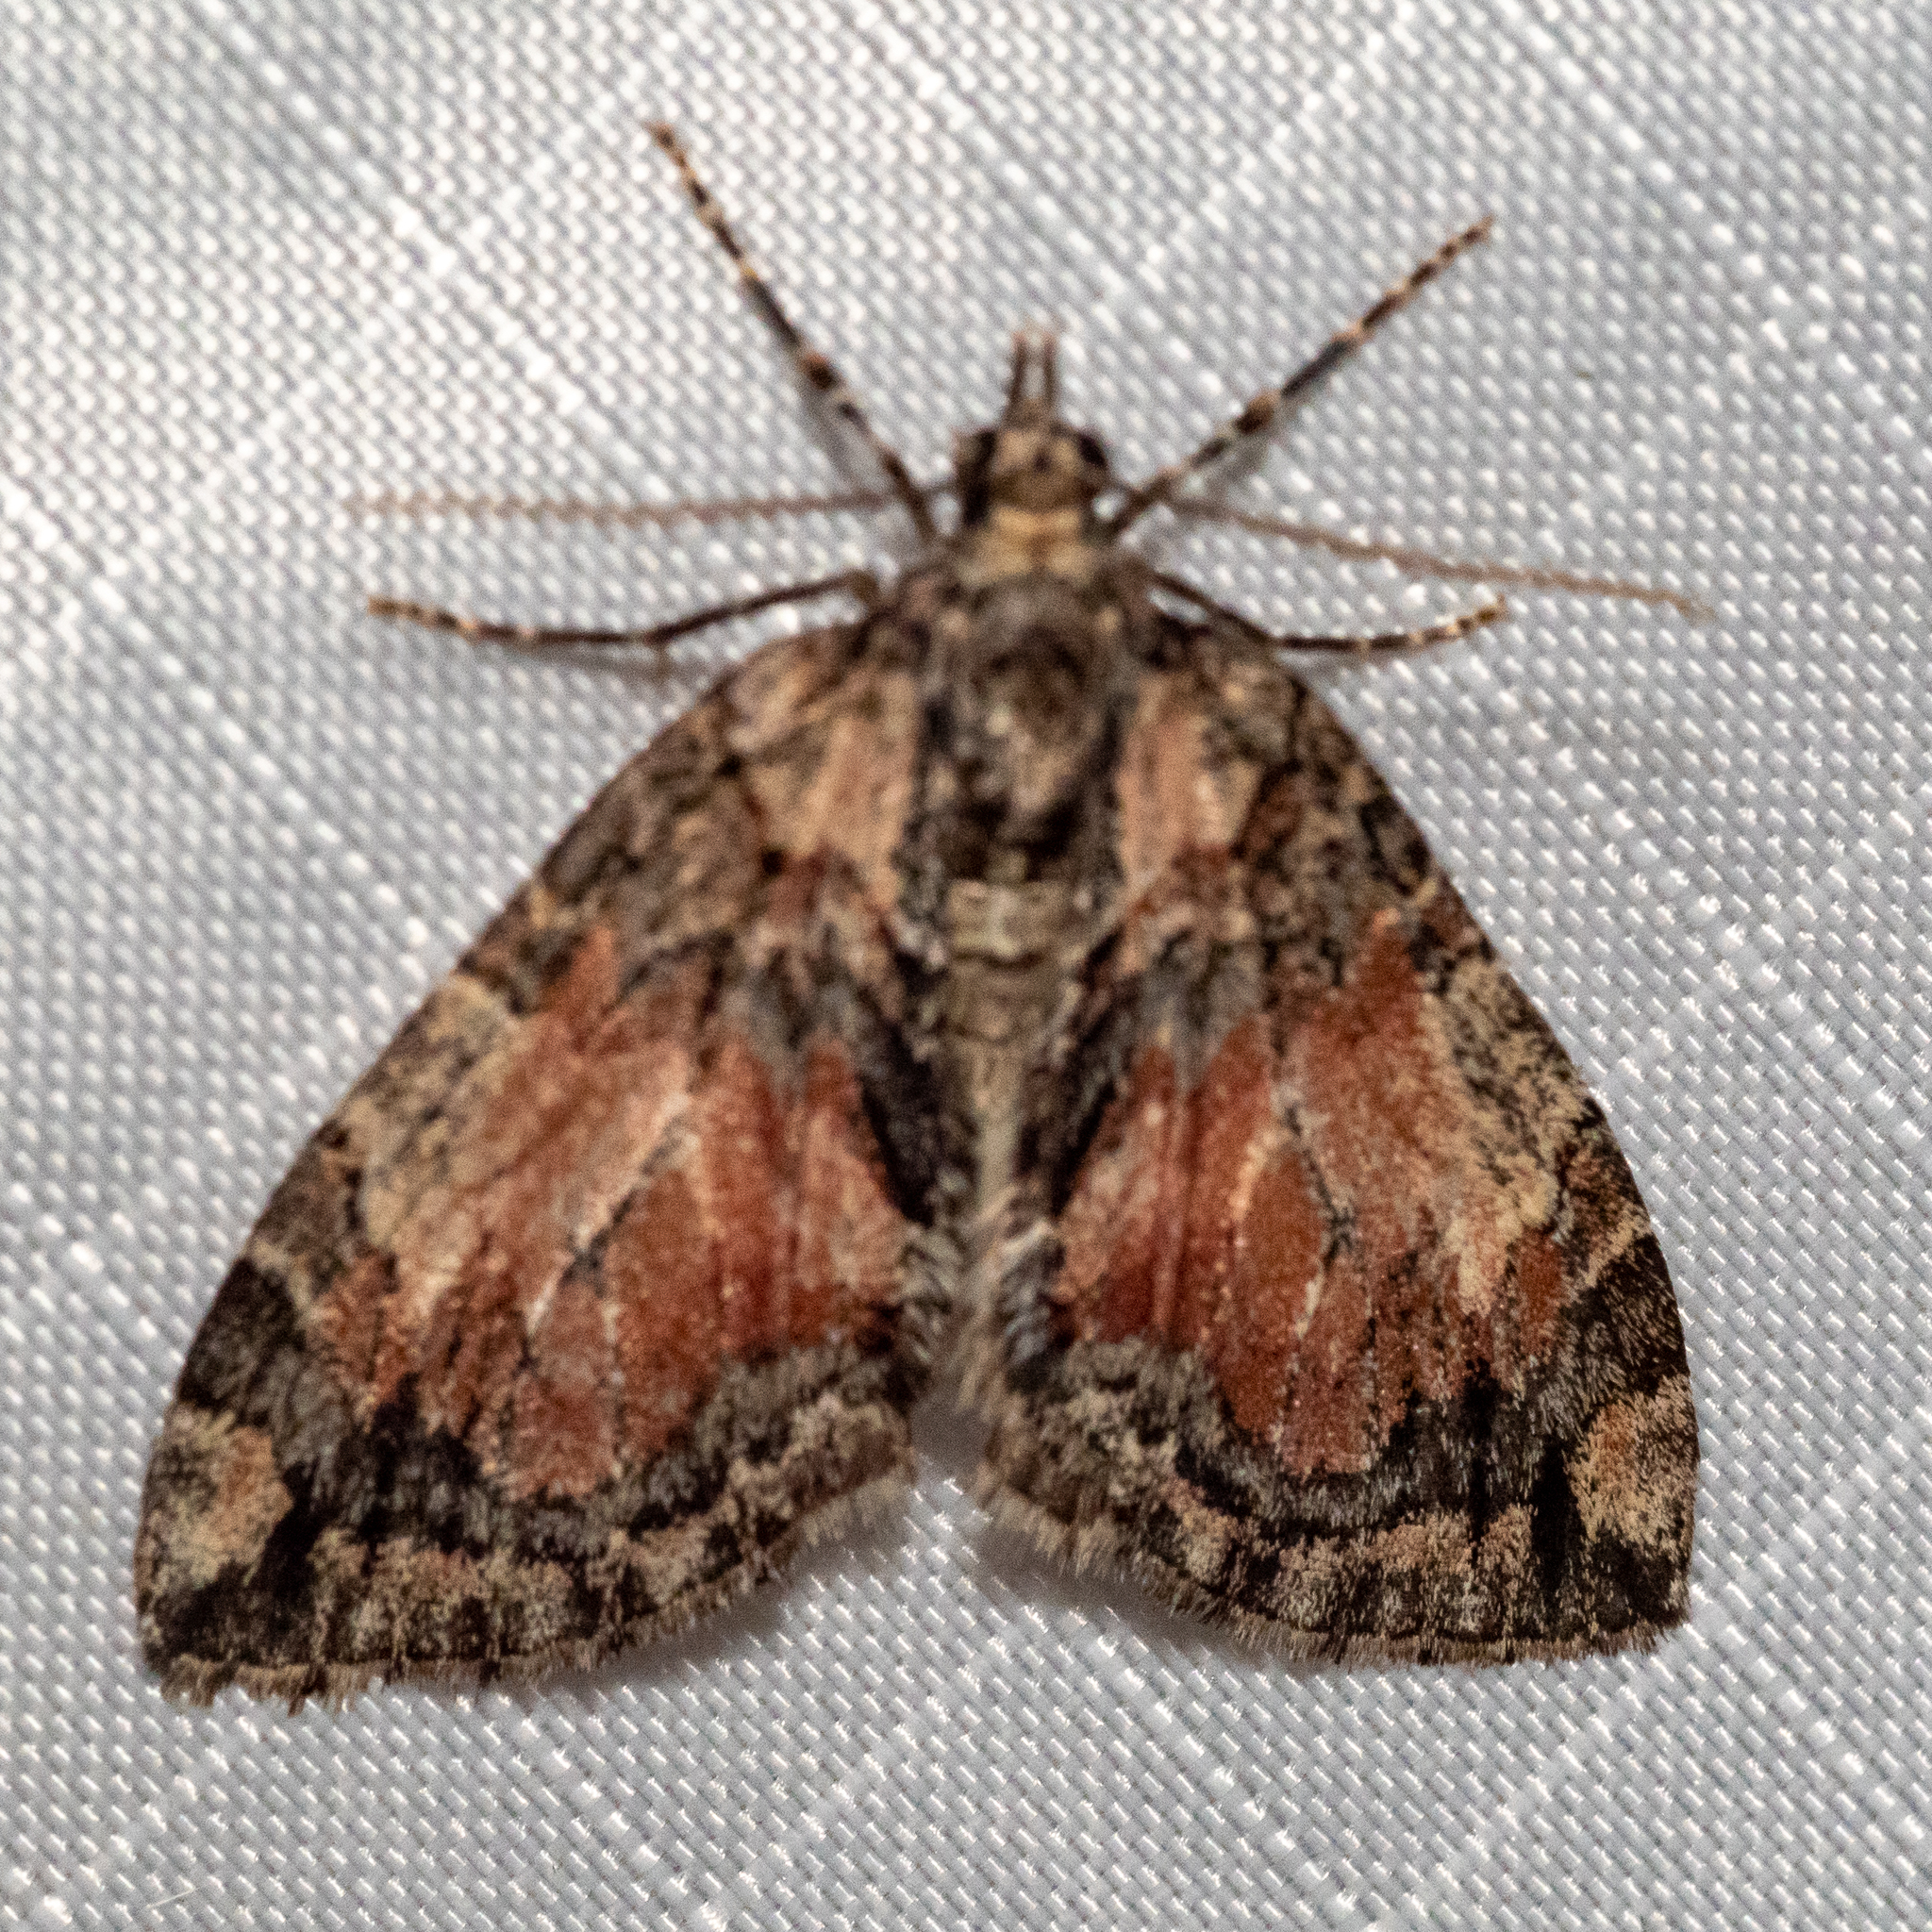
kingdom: Animalia
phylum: Arthropoda
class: Insecta
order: Lepidoptera
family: Geometridae
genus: Hydriomena
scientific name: Hydriomena perfracta
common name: Shattered hydriomena moth
